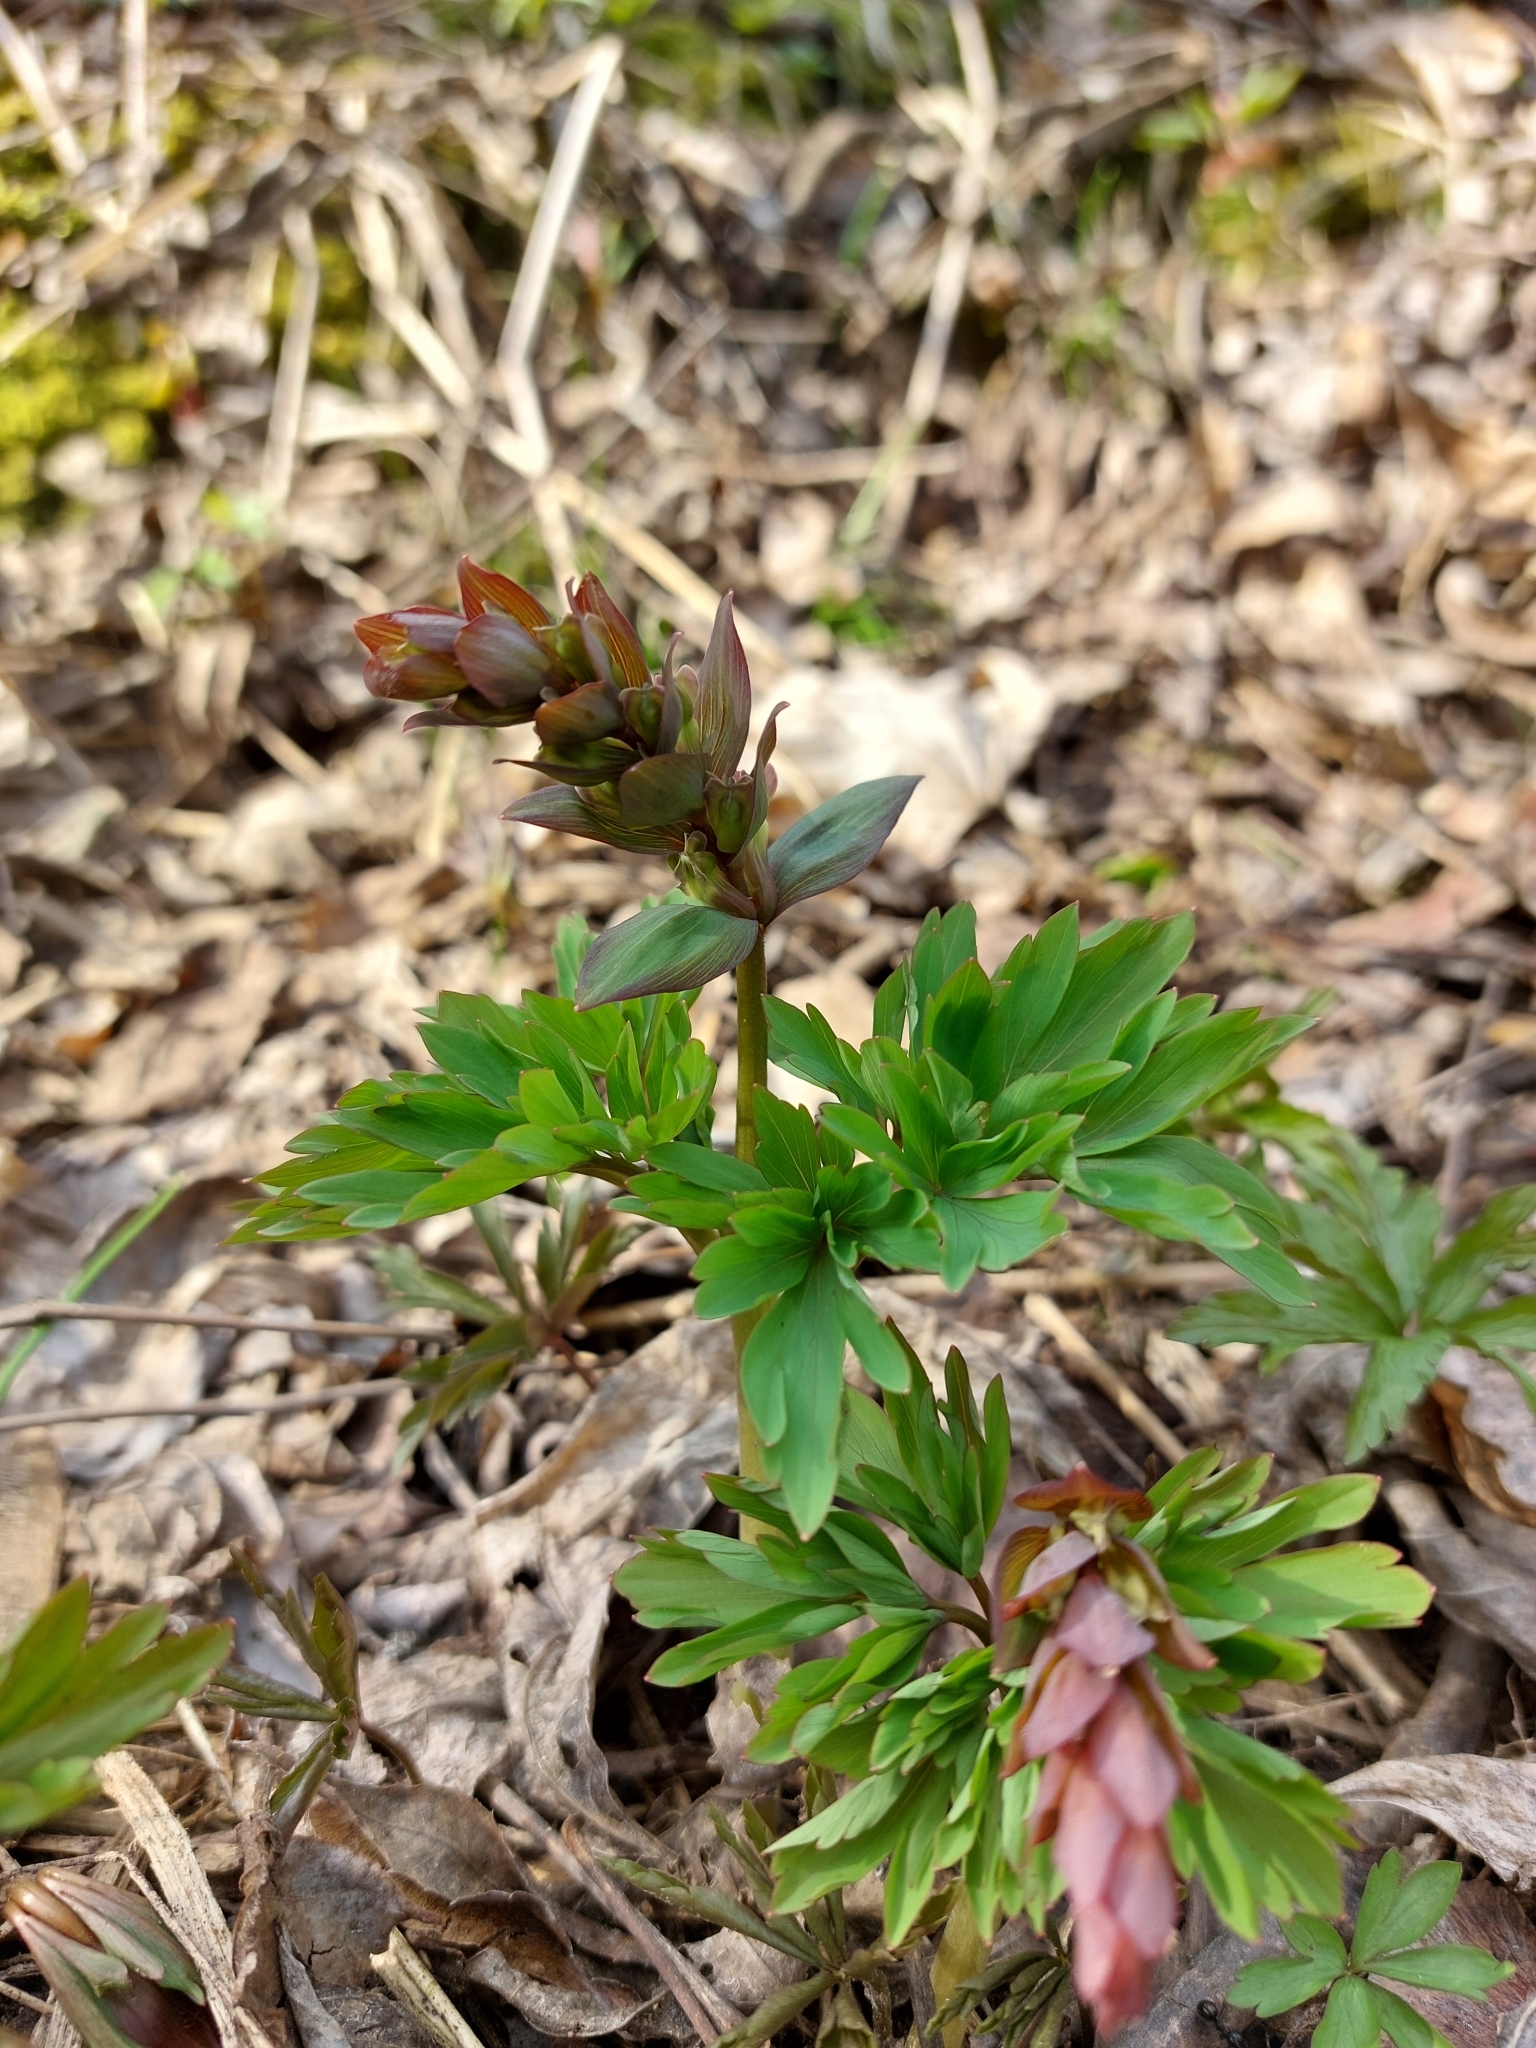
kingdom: Plantae
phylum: Tracheophyta
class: Magnoliopsida
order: Ranunculales
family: Papaveraceae
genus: Corydalis
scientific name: Corydalis cava
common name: Hollowroot
